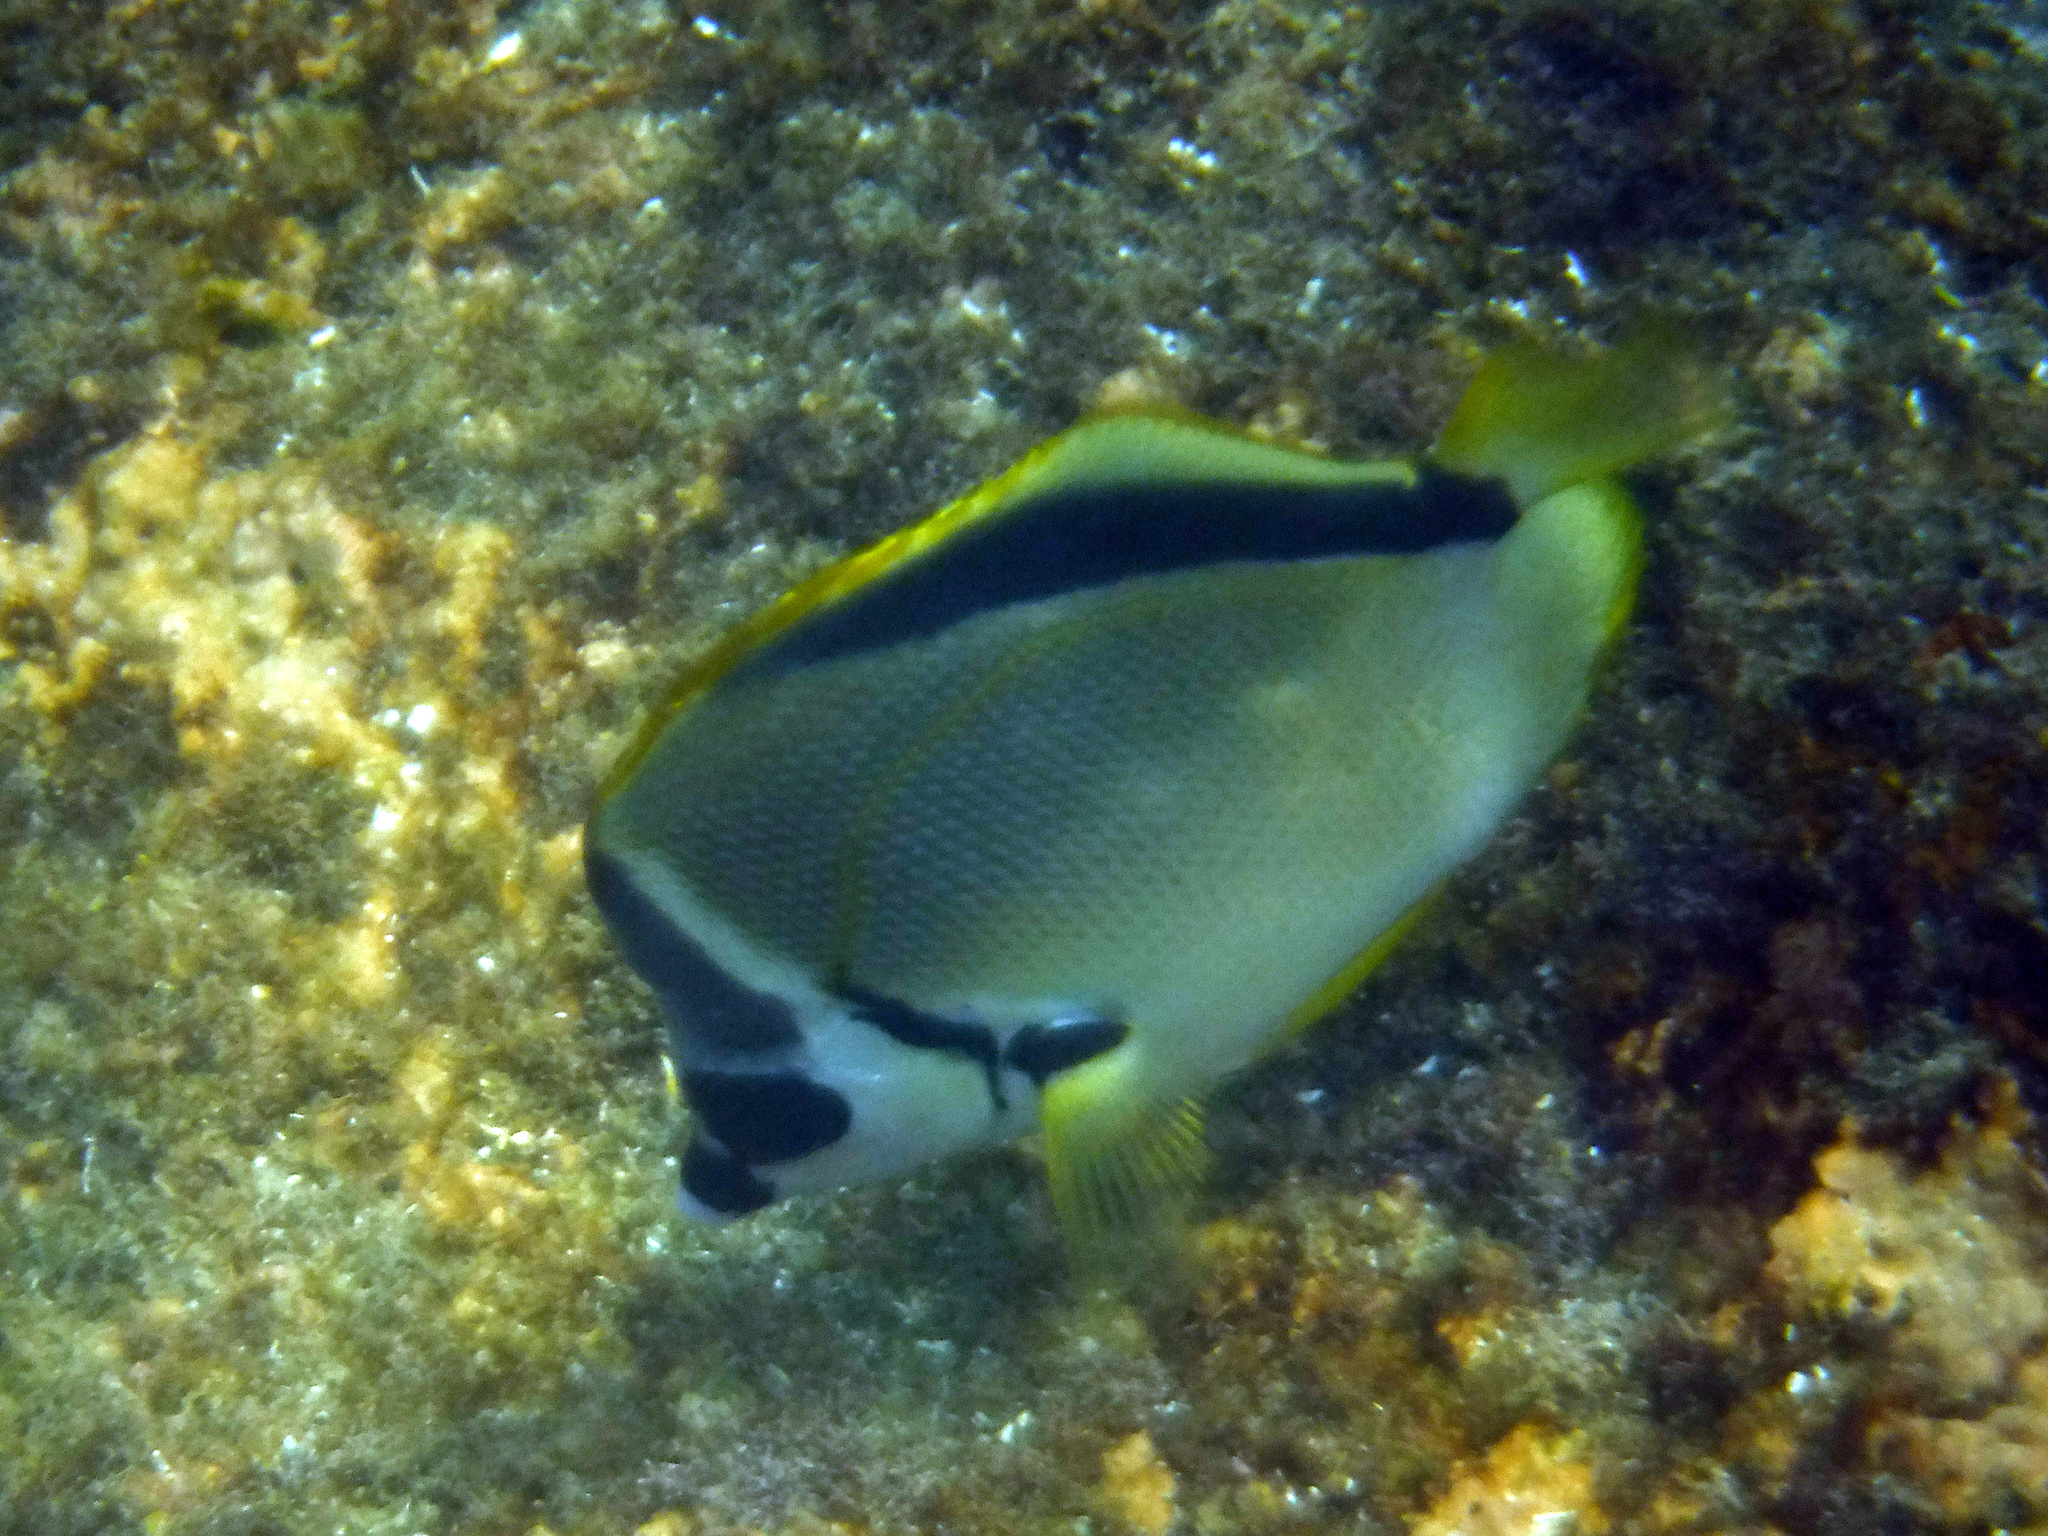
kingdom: Animalia
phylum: Chordata
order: Perciformes
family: Chaetodontidae
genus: Johnrandallia
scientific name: Johnrandallia nigrirostris
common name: Barberfish
